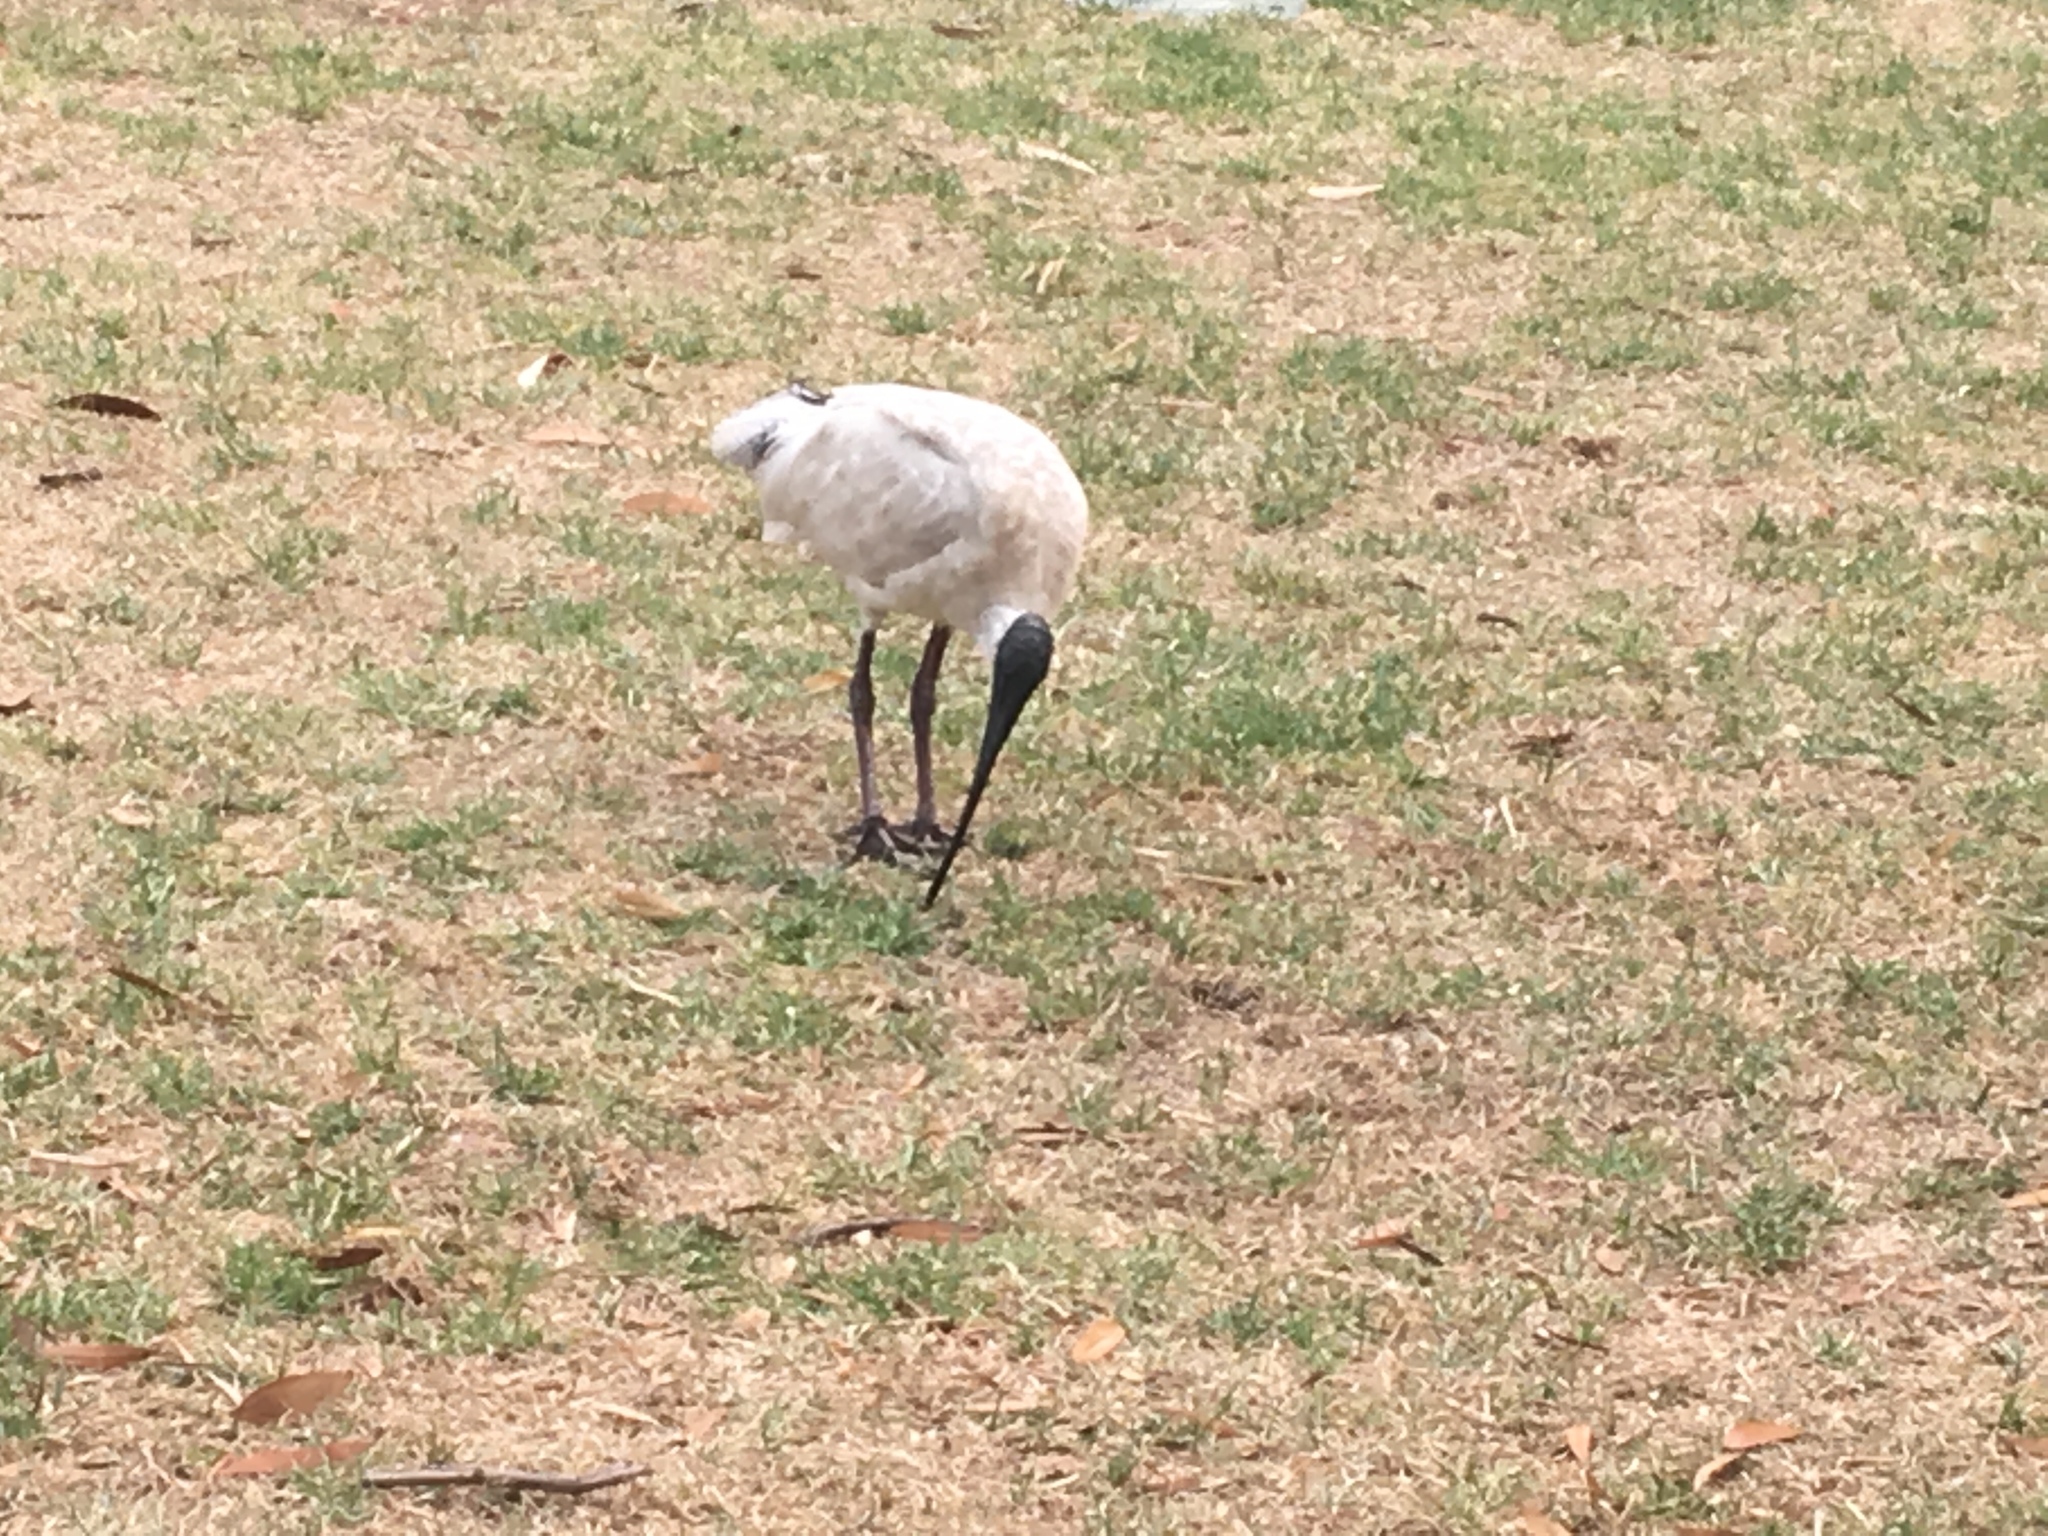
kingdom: Animalia
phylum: Chordata
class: Aves
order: Pelecaniformes
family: Threskiornithidae
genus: Threskiornis
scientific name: Threskiornis molucca
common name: Australian white ibis
